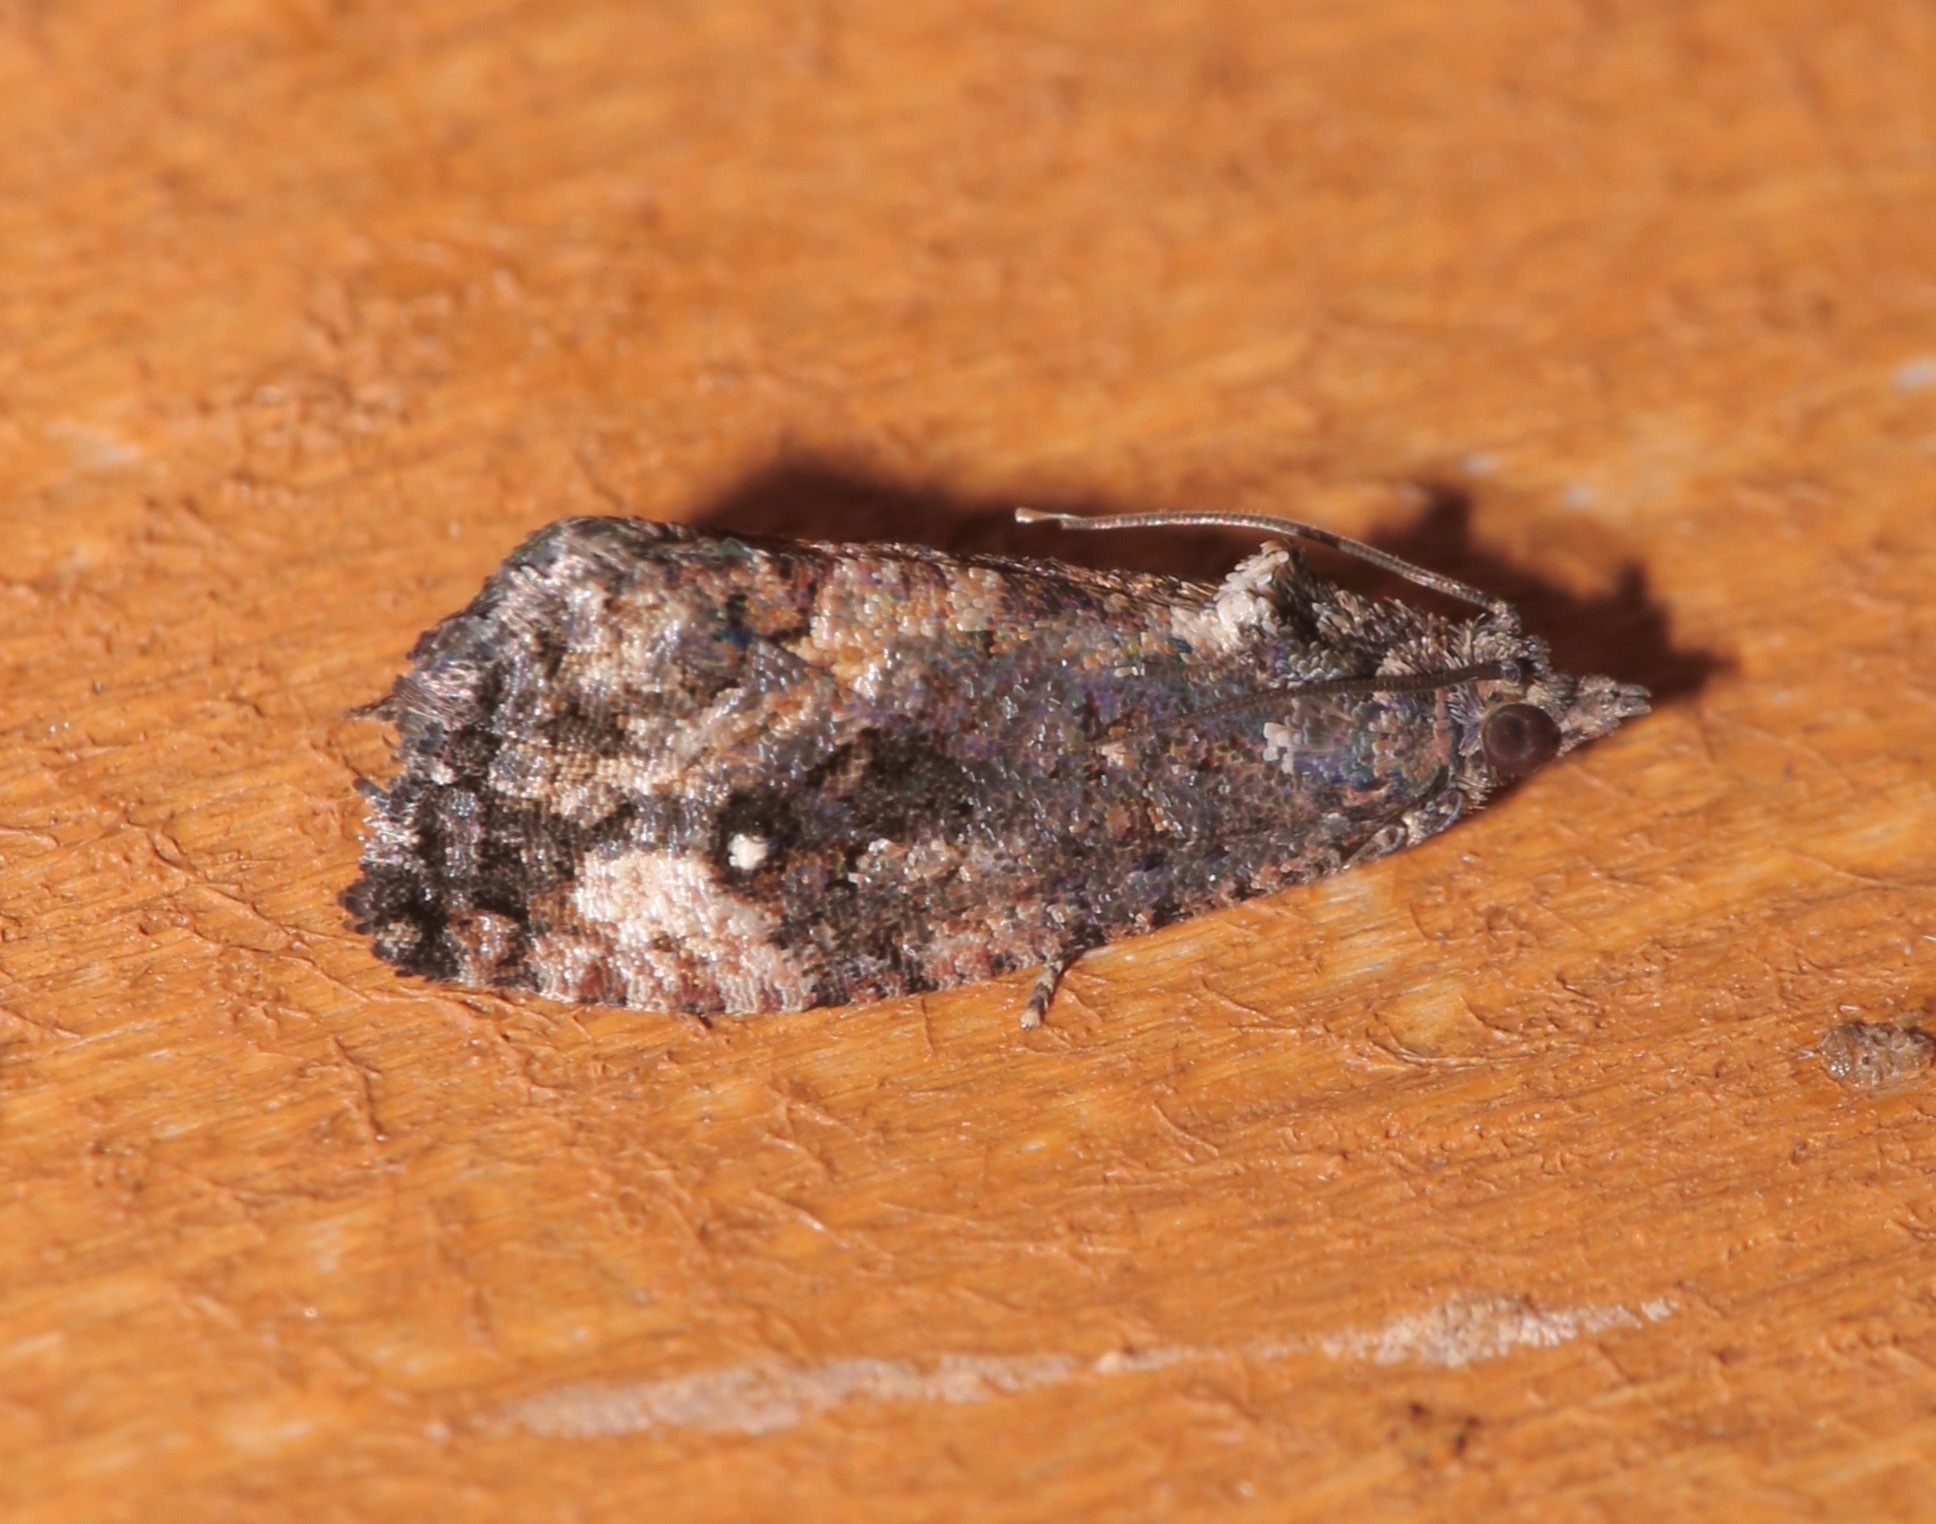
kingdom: Animalia
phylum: Arthropoda
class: Insecta
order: Lepidoptera
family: Tortricidae
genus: Gymnandrosoma
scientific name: Gymnandrosoma punctidiscanum
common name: Dotted ecdytolopha moth
